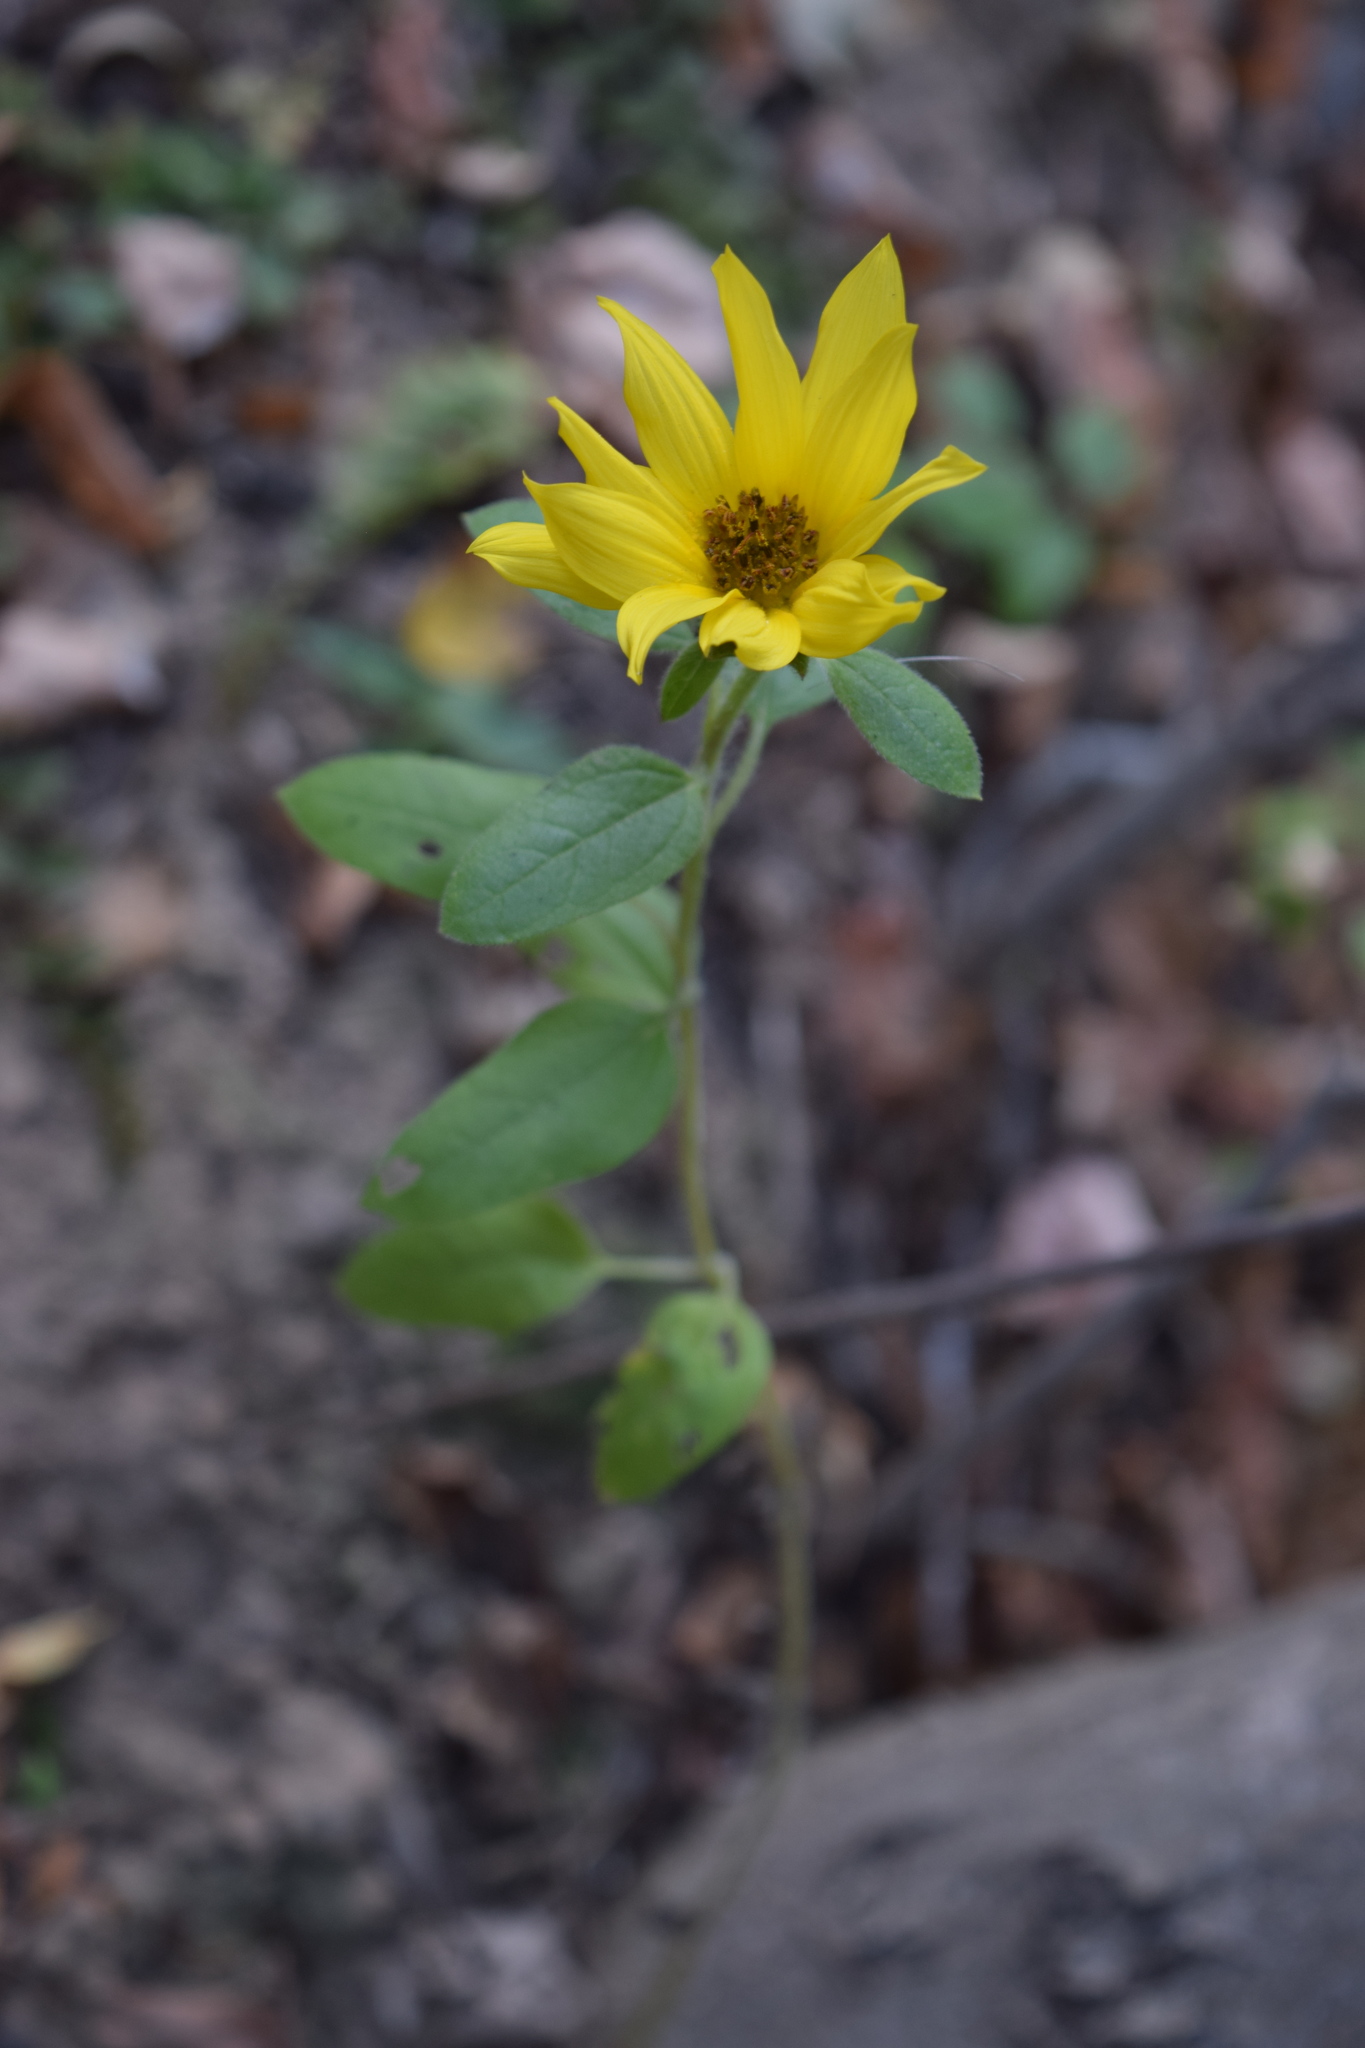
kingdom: Plantae
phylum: Tracheophyta
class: Magnoliopsida
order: Asterales
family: Asteraceae
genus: Helianthus
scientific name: Helianthus annuus
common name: Sunflower
